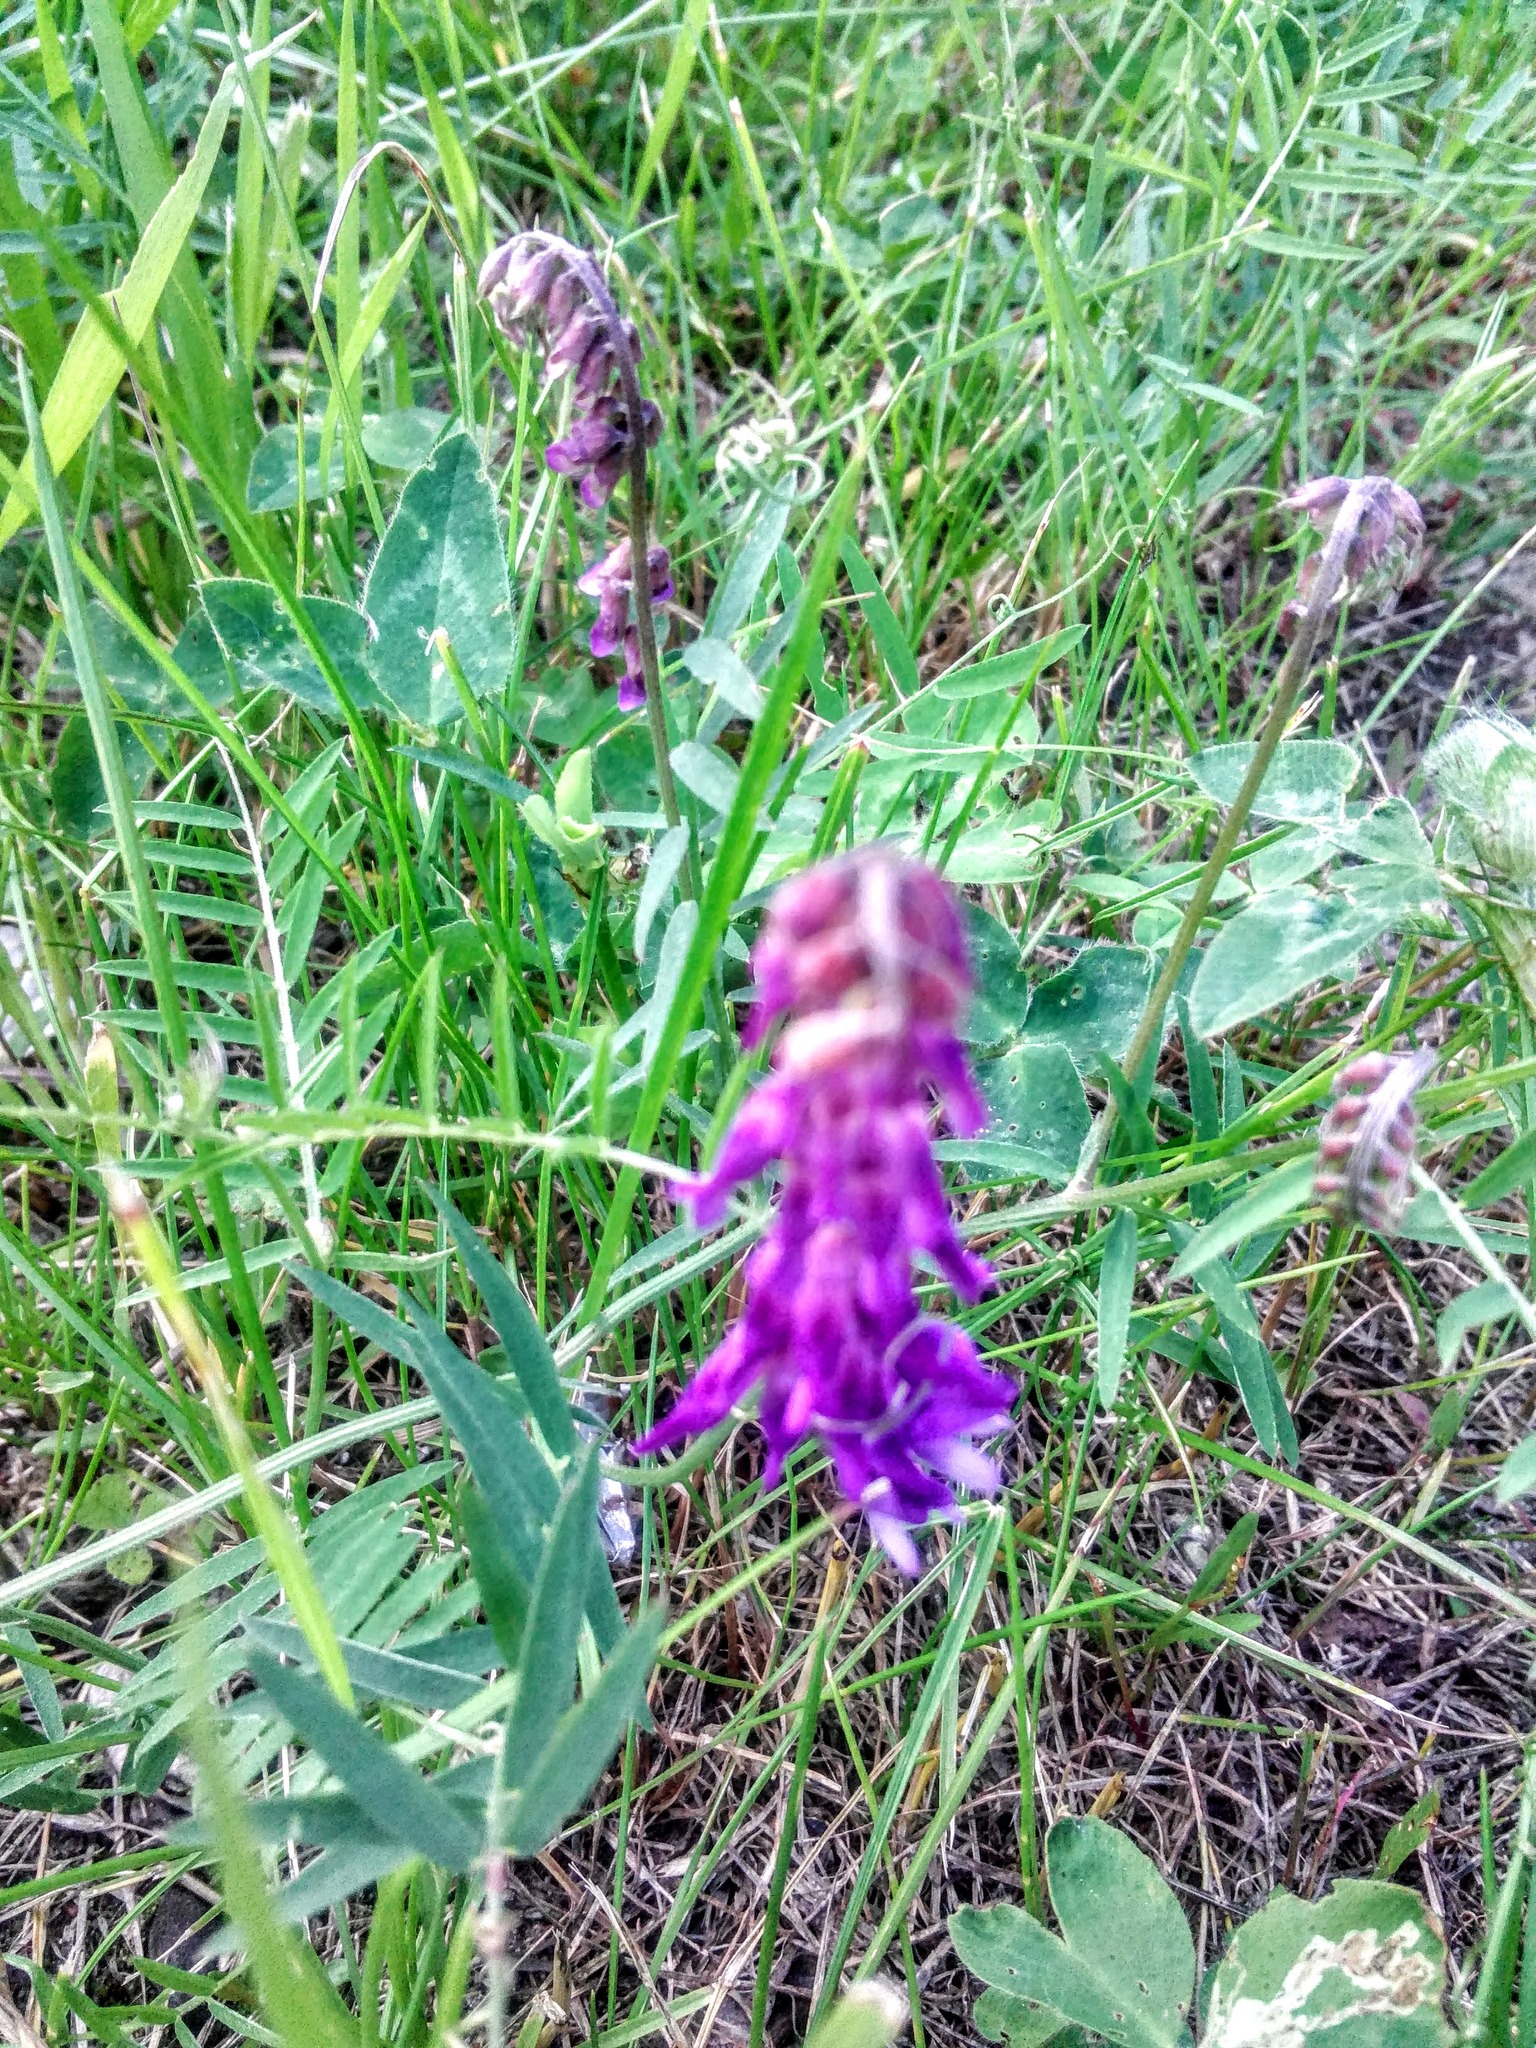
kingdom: Plantae
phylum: Tracheophyta
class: Magnoliopsida
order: Fabales
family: Fabaceae
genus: Vicia
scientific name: Vicia cracca
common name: Bird vetch
